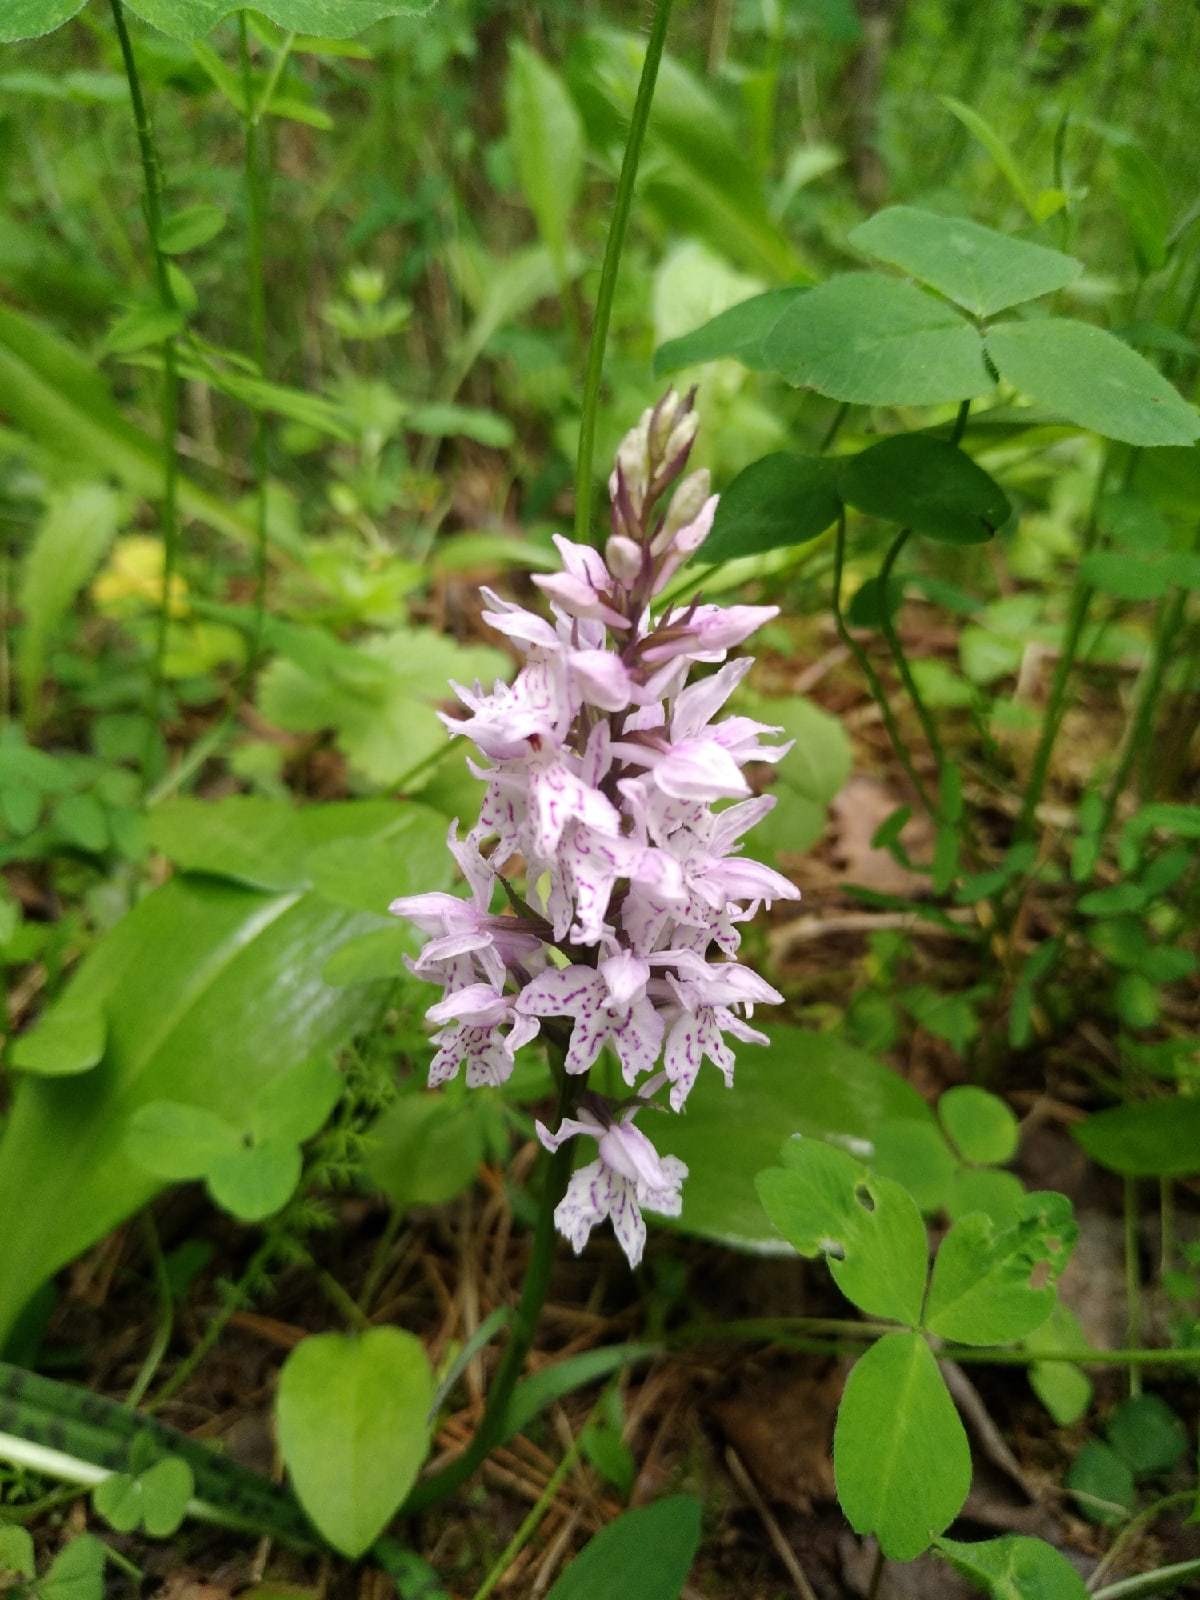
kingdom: Plantae
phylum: Tracheophyta
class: Liliopsida
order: Asparagales
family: Orchidaceae
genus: Dactylorhiza
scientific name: Dactylorhiza maculata
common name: Heath spotted-orchid
